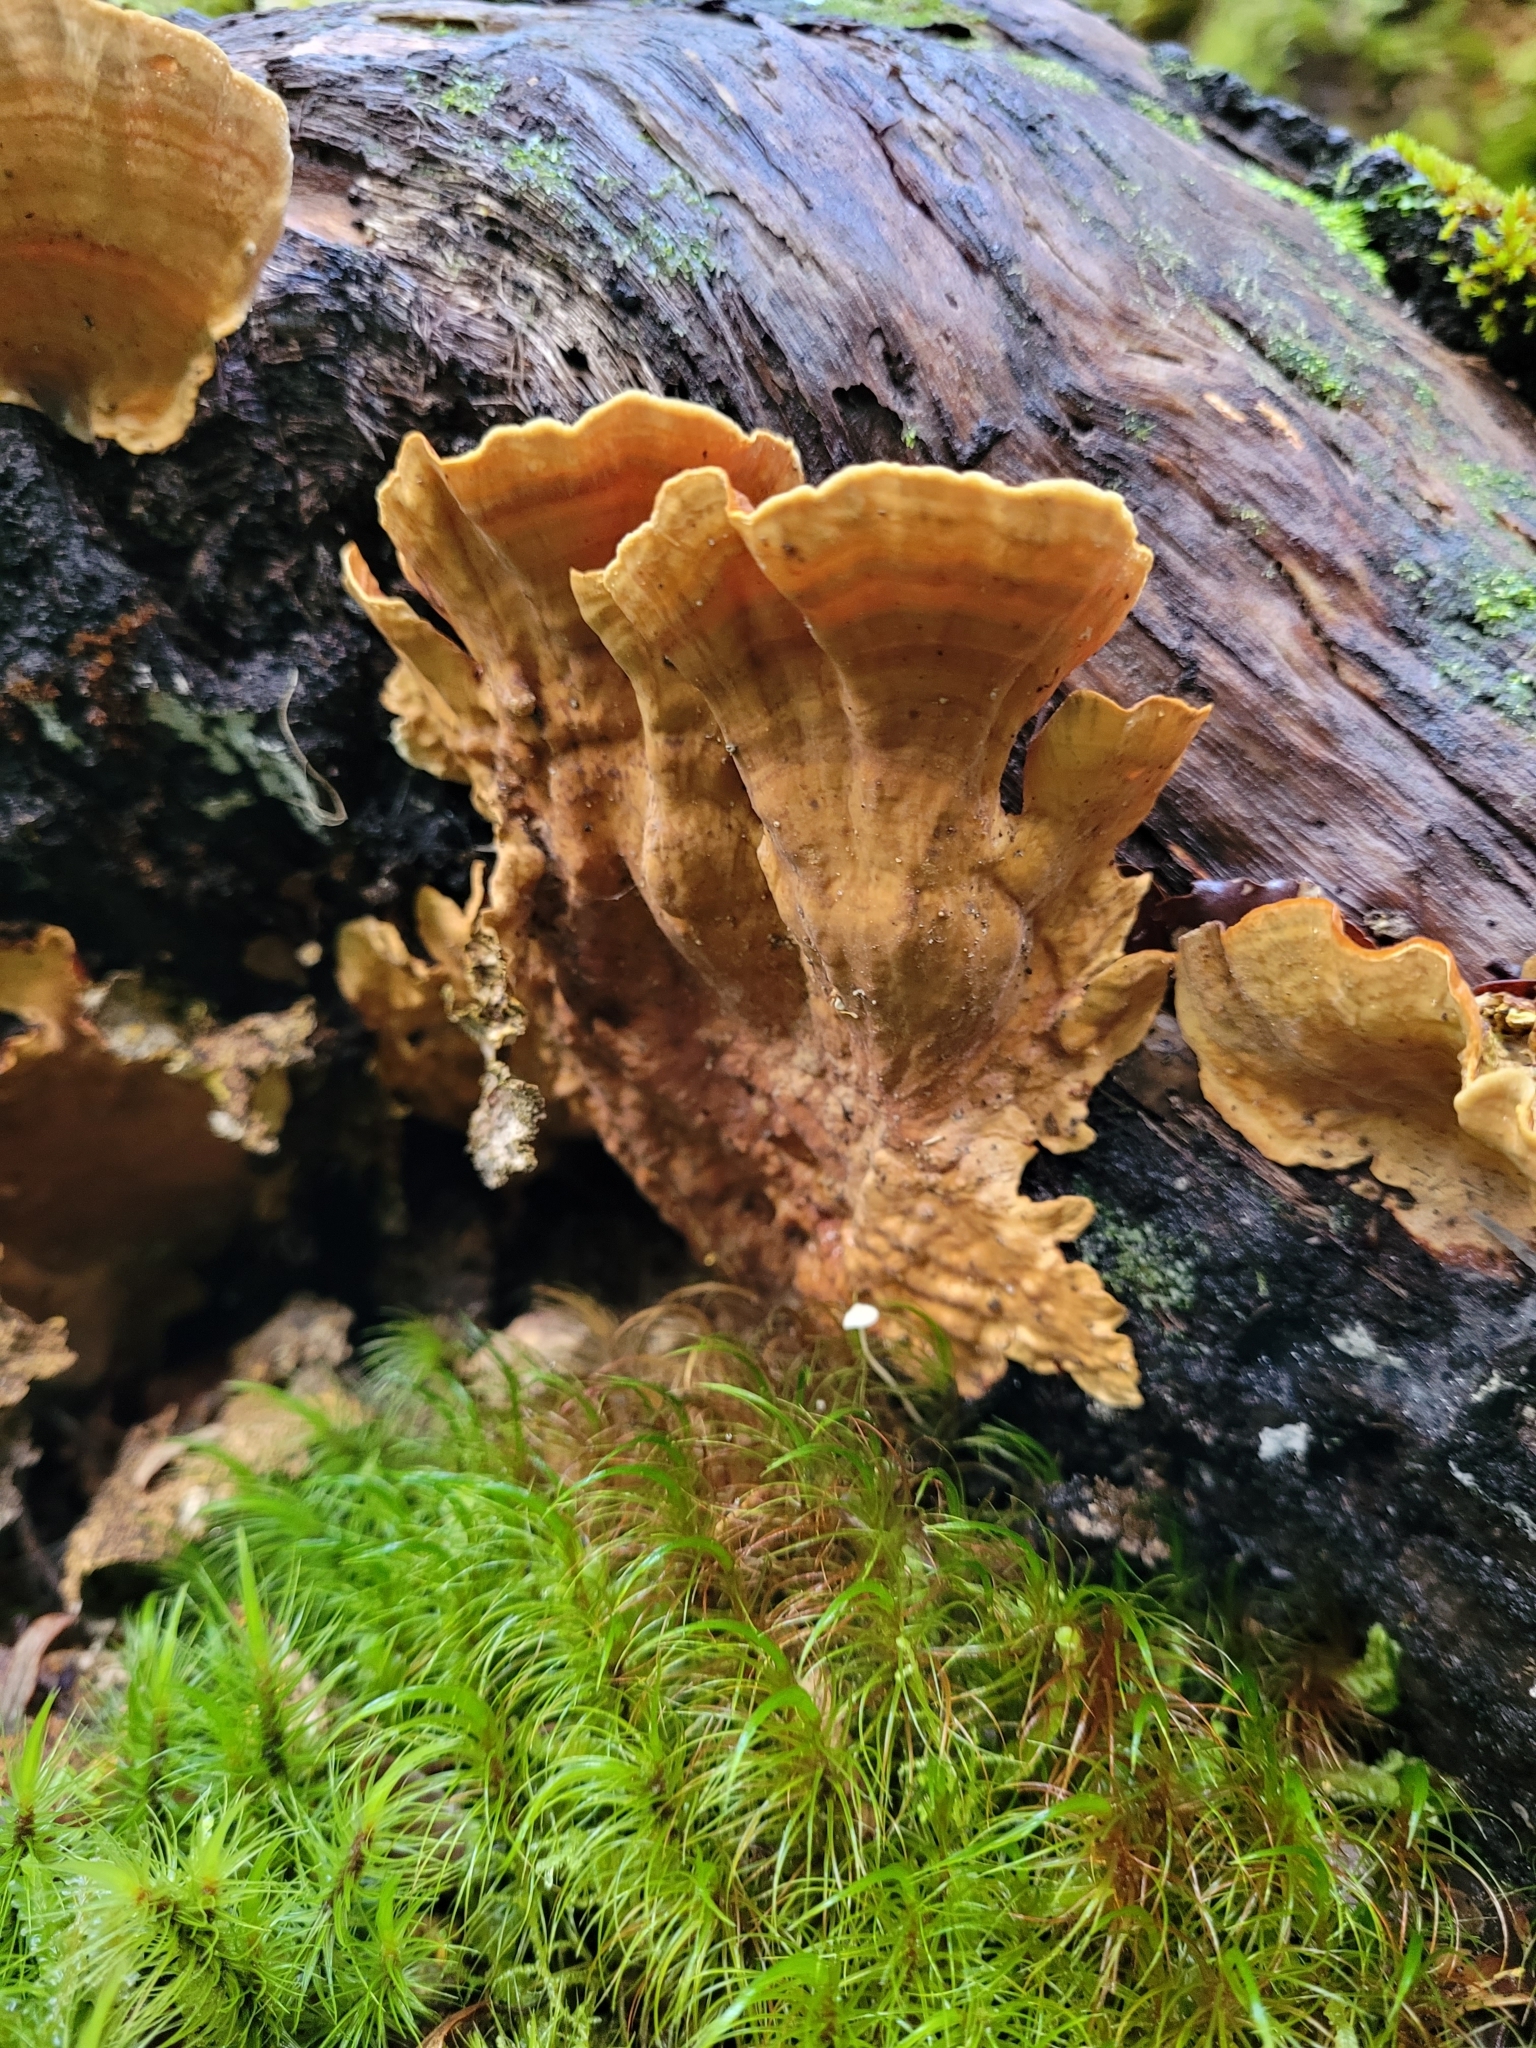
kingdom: Fungi
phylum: Basidiomycota
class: Agaricomycetes
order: Russulales
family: Stereaceae
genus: Stereum
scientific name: Stereum versicolor
